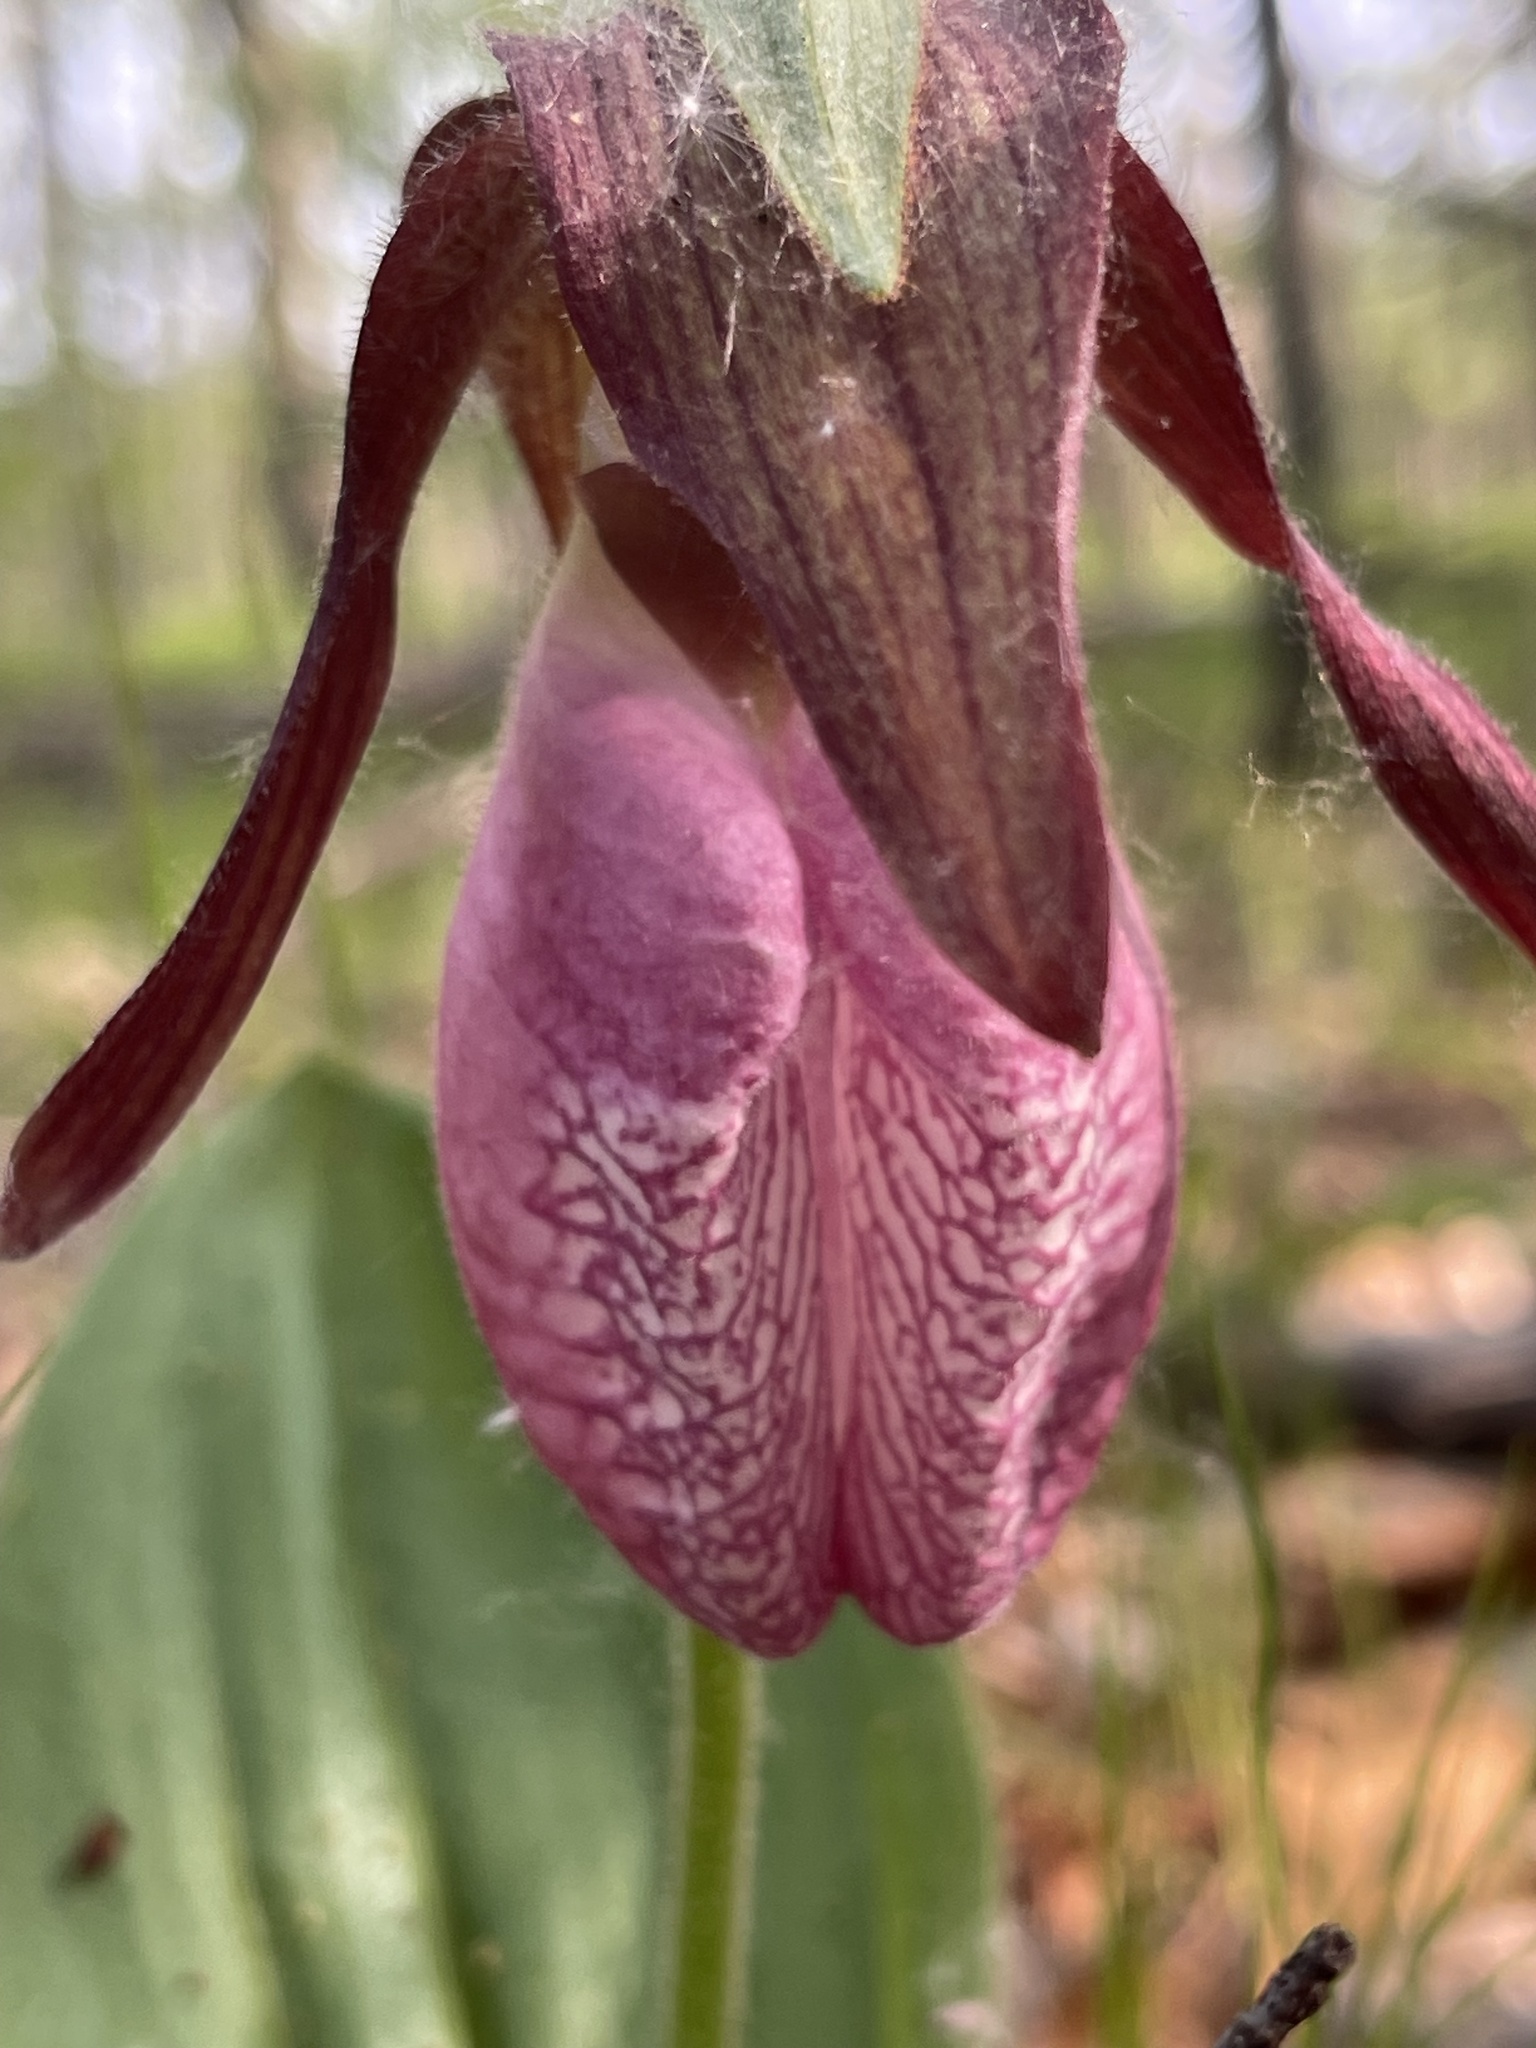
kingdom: Plantae
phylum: Tracheophyta
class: Liliopsida
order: Asparagales
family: Orchidaceae
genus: Cypripedium
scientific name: Cypripedium acaule
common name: Pink lady's-slipper
